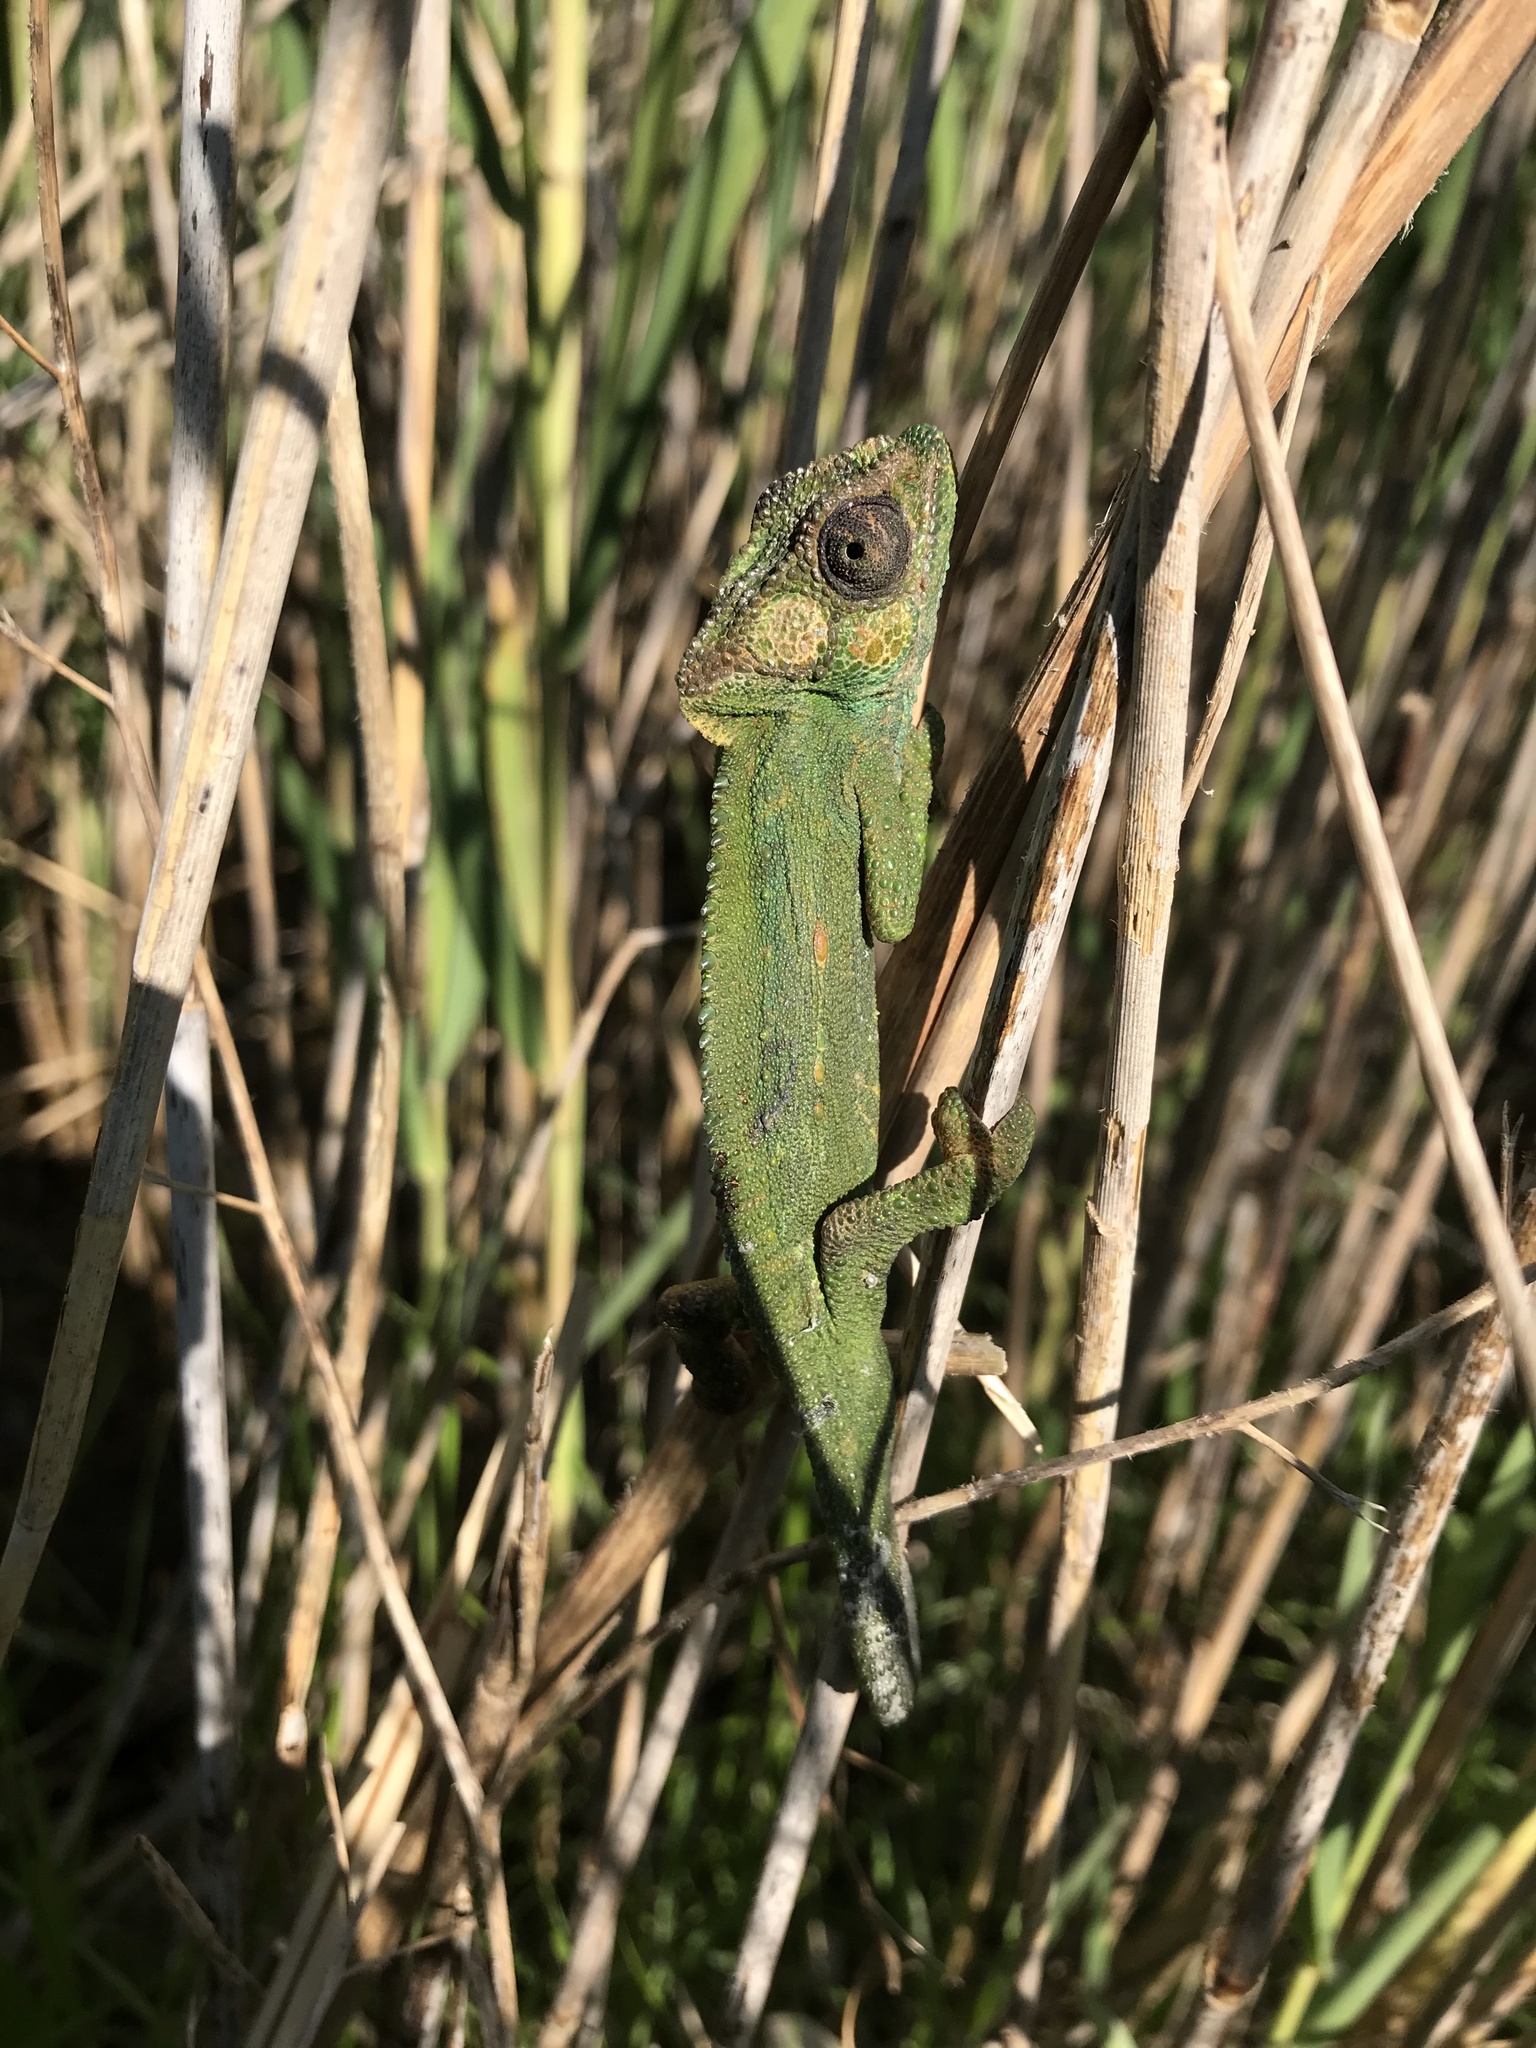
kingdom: Animalia
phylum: Chordata
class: Squamata
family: Chamaeleonidae
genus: Bradypodion
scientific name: Bradypodion pumilum
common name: Cape dwarf chameleon
